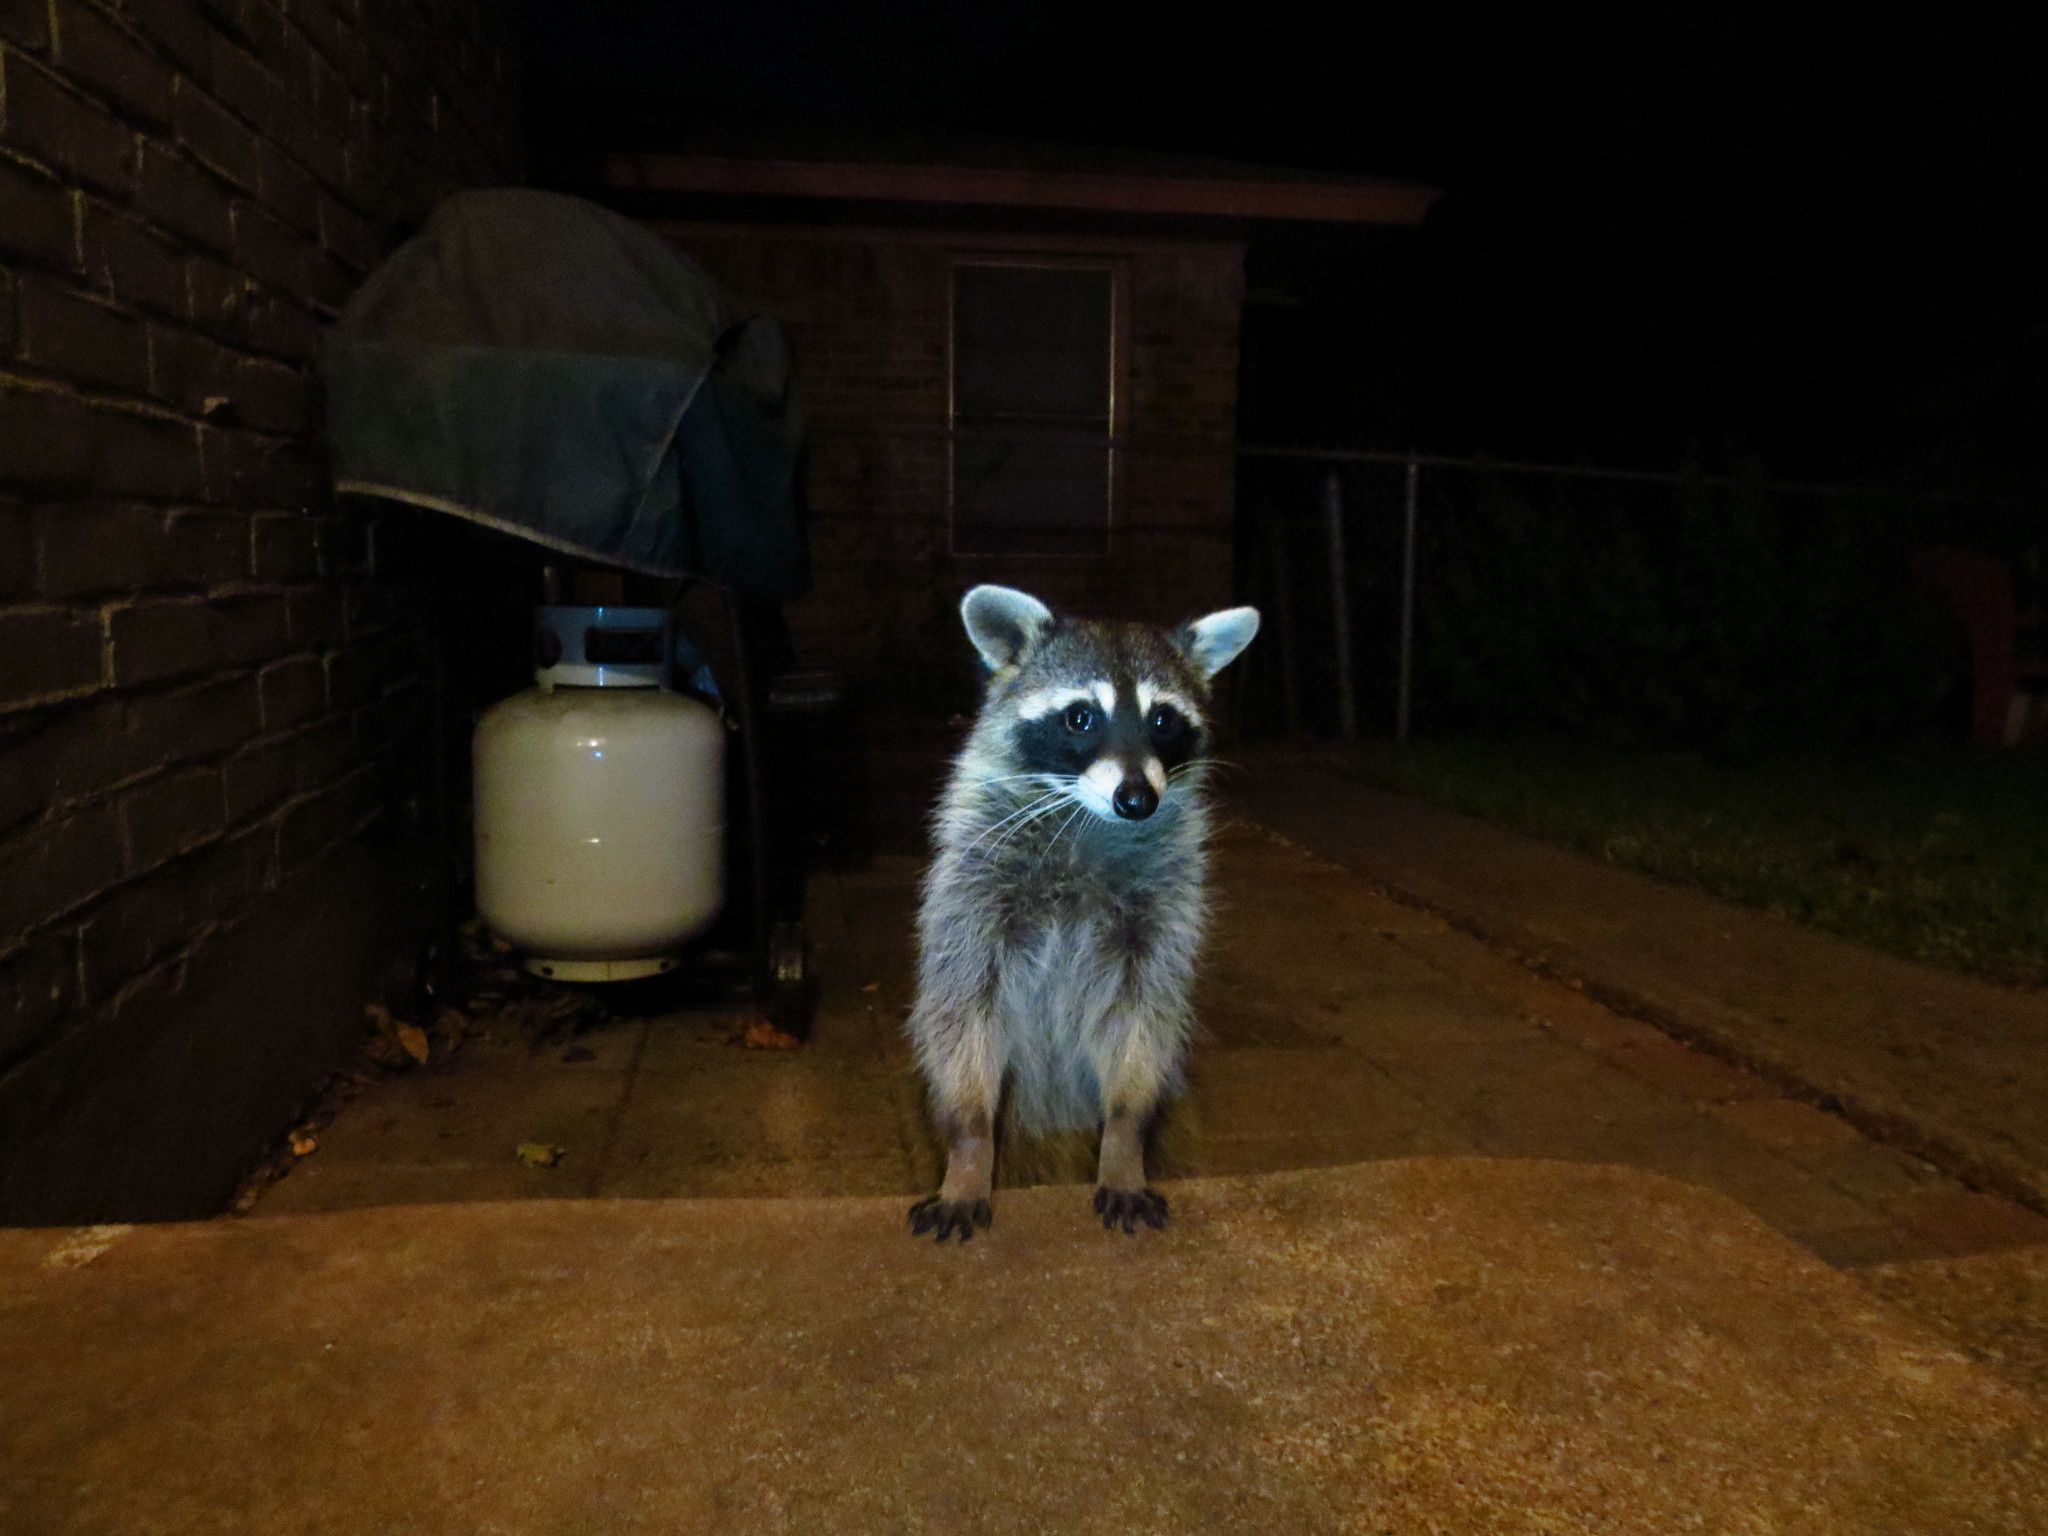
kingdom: Animalia
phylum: Chordata
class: Mammalia
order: Carnivora
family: Procyonidae
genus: Procyon
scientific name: Procyon lotor
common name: Raccoon
